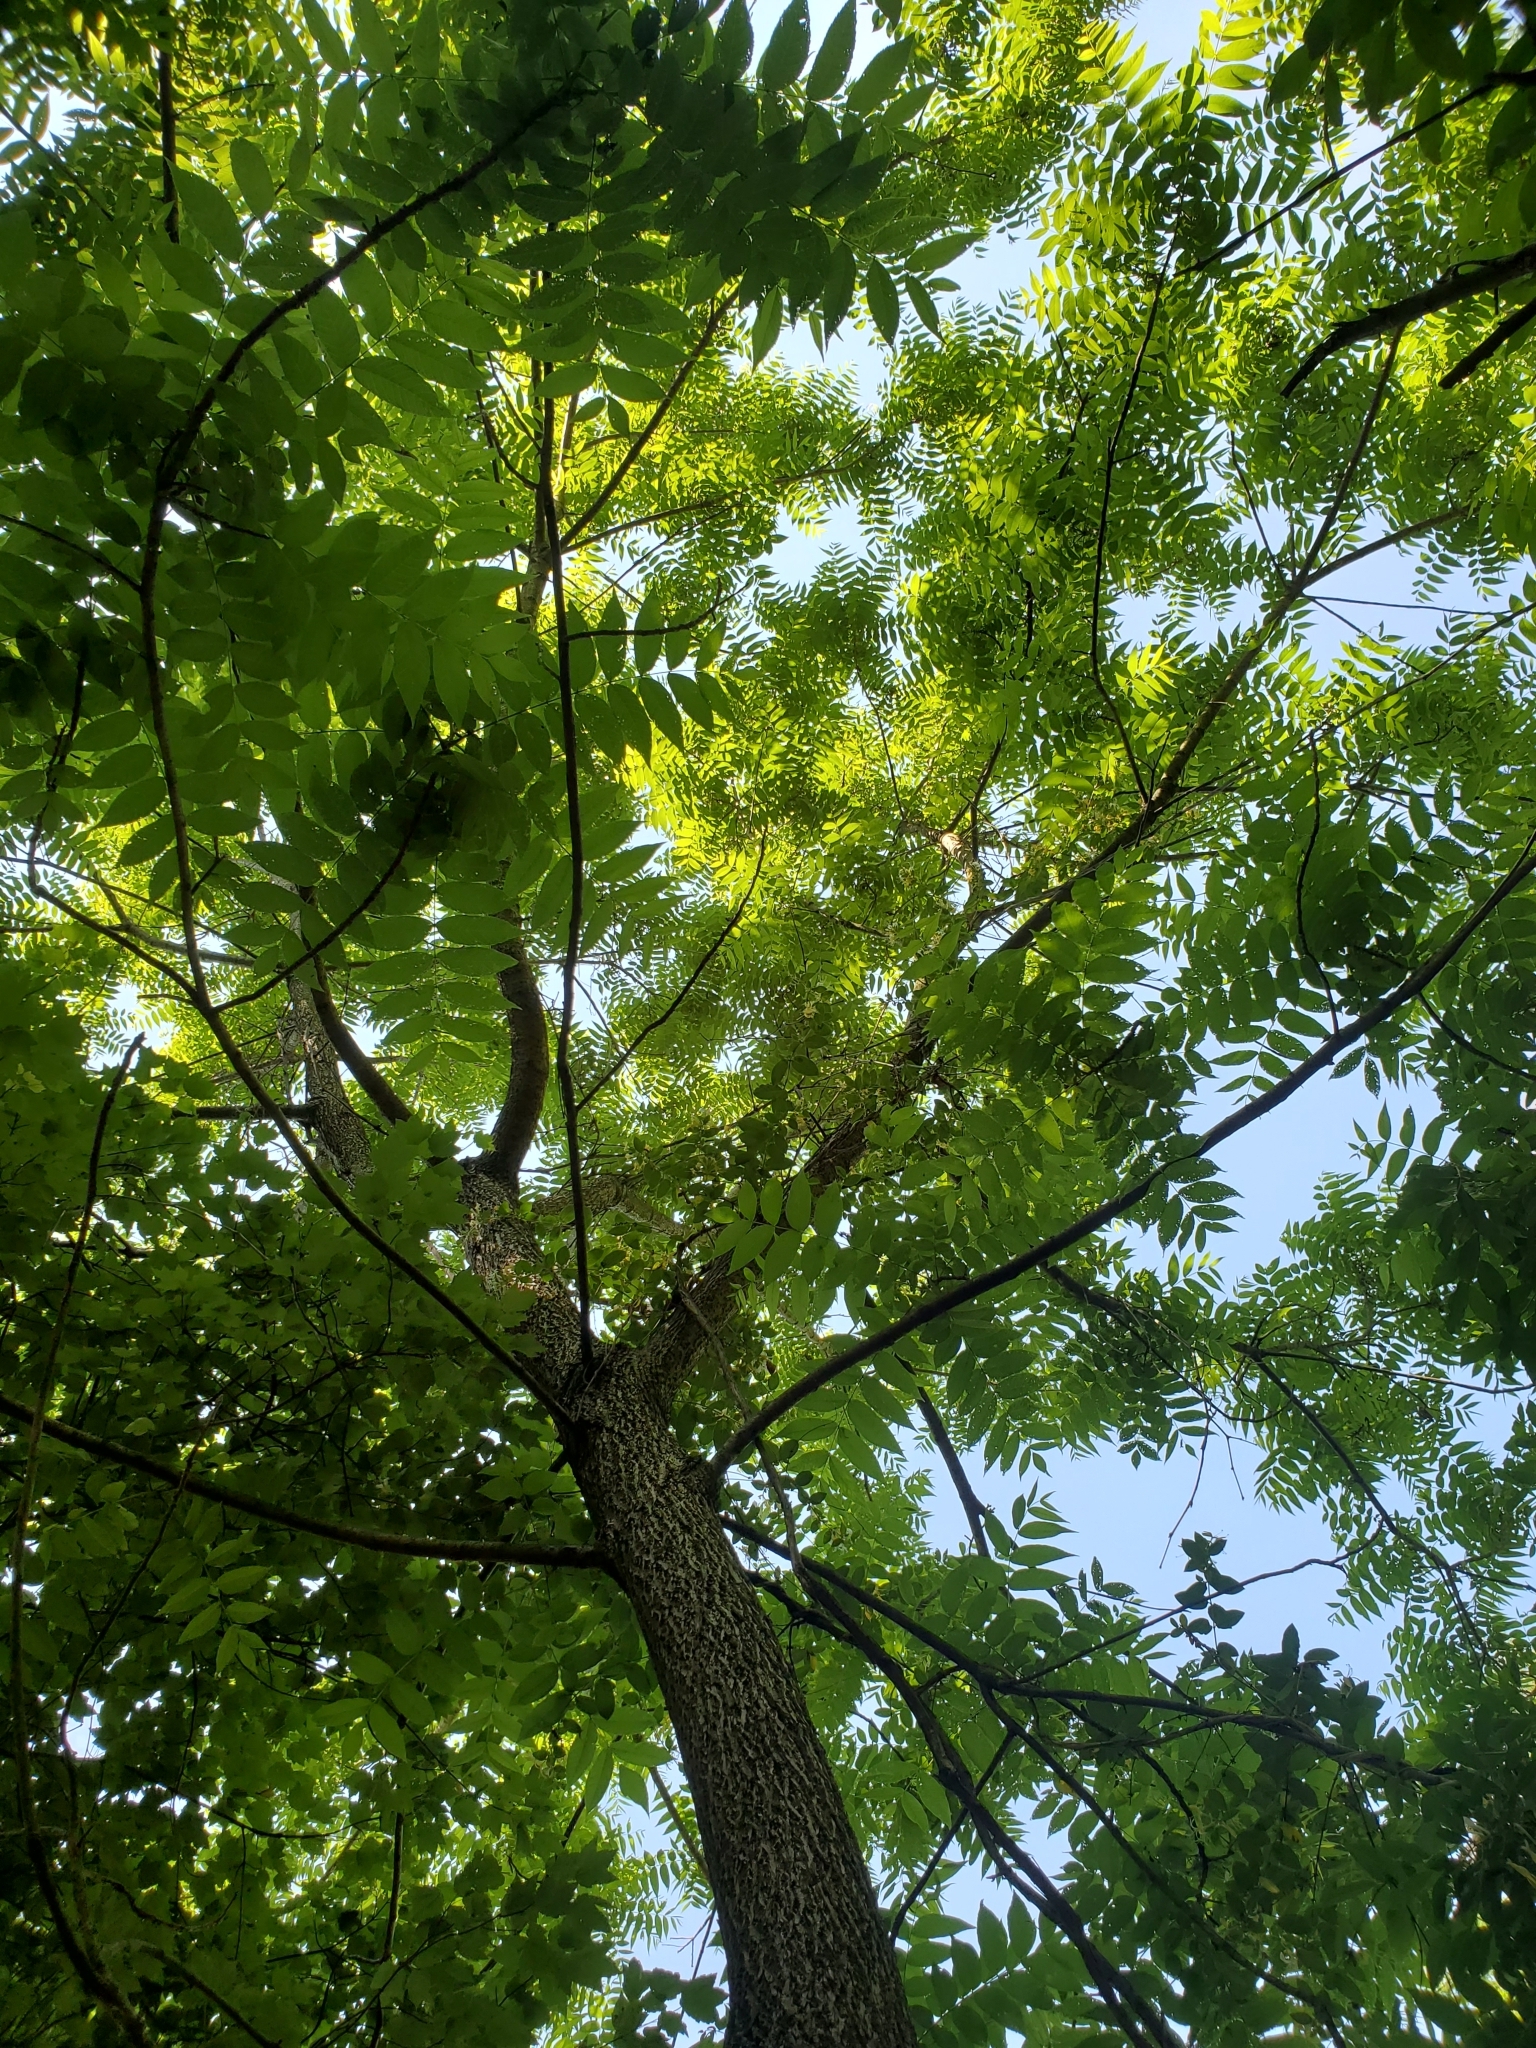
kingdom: Plantae
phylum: Tracheophyta
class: Magnoliopsida
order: Fagales
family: Juglandaceae
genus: Juglans
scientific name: Juglans nigra
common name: Black walnut
